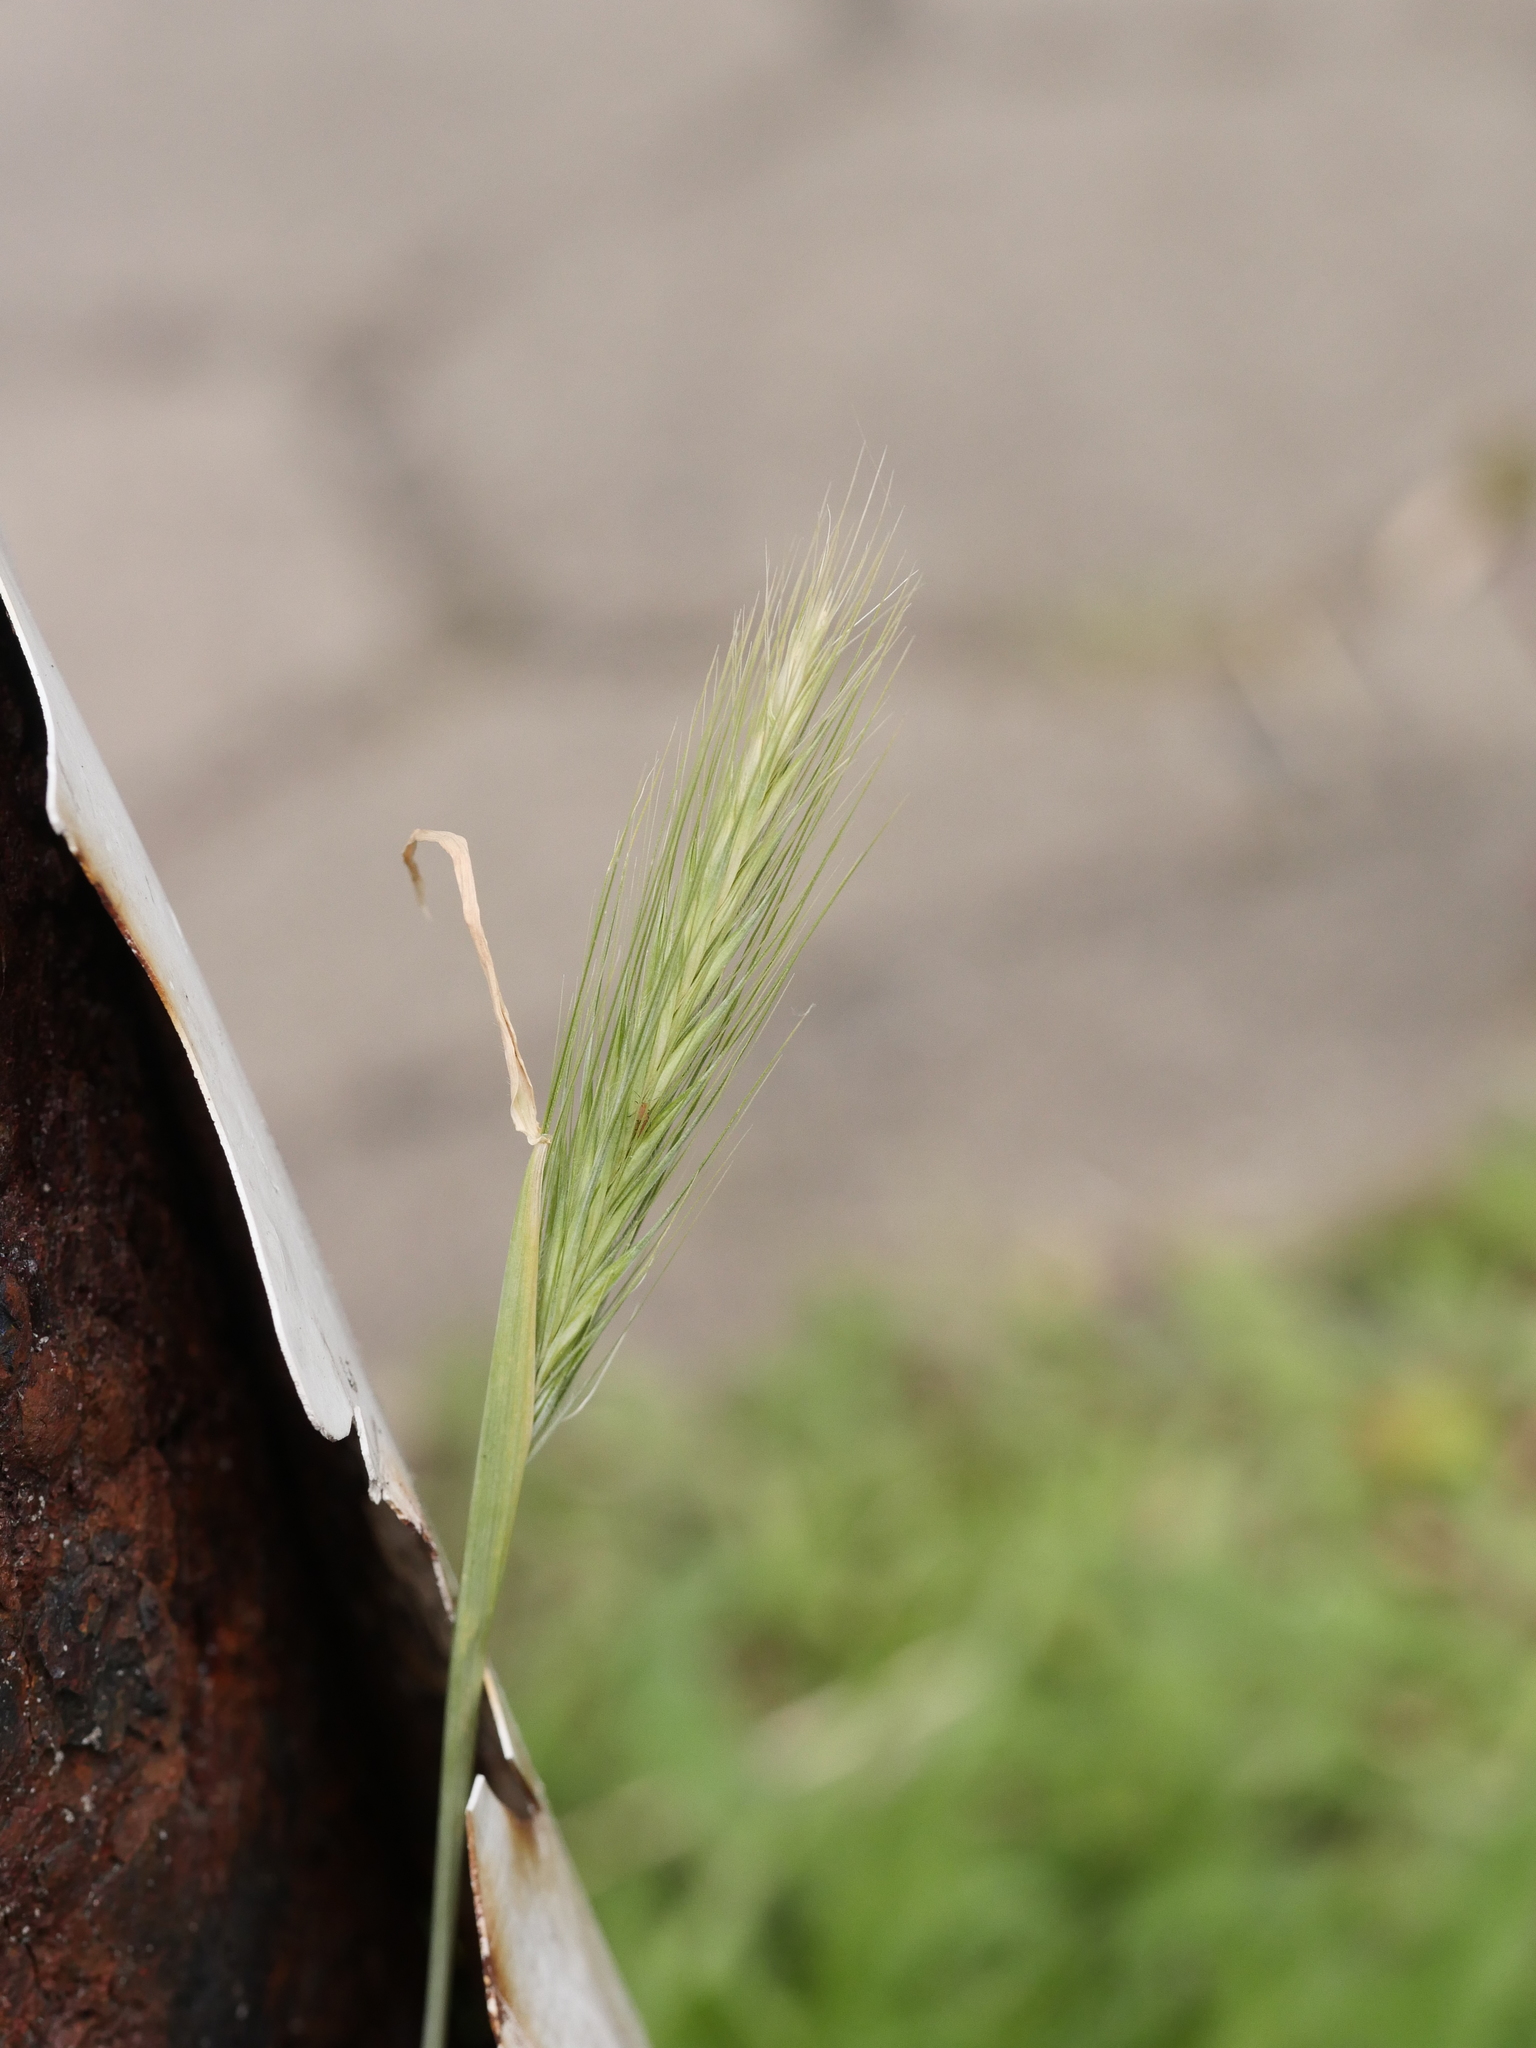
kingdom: Plantae
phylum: Tracheophyta
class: Liliopsida
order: Poales
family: Poaceae
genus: Hordeum
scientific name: Hordeum murinum
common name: Wall barley
